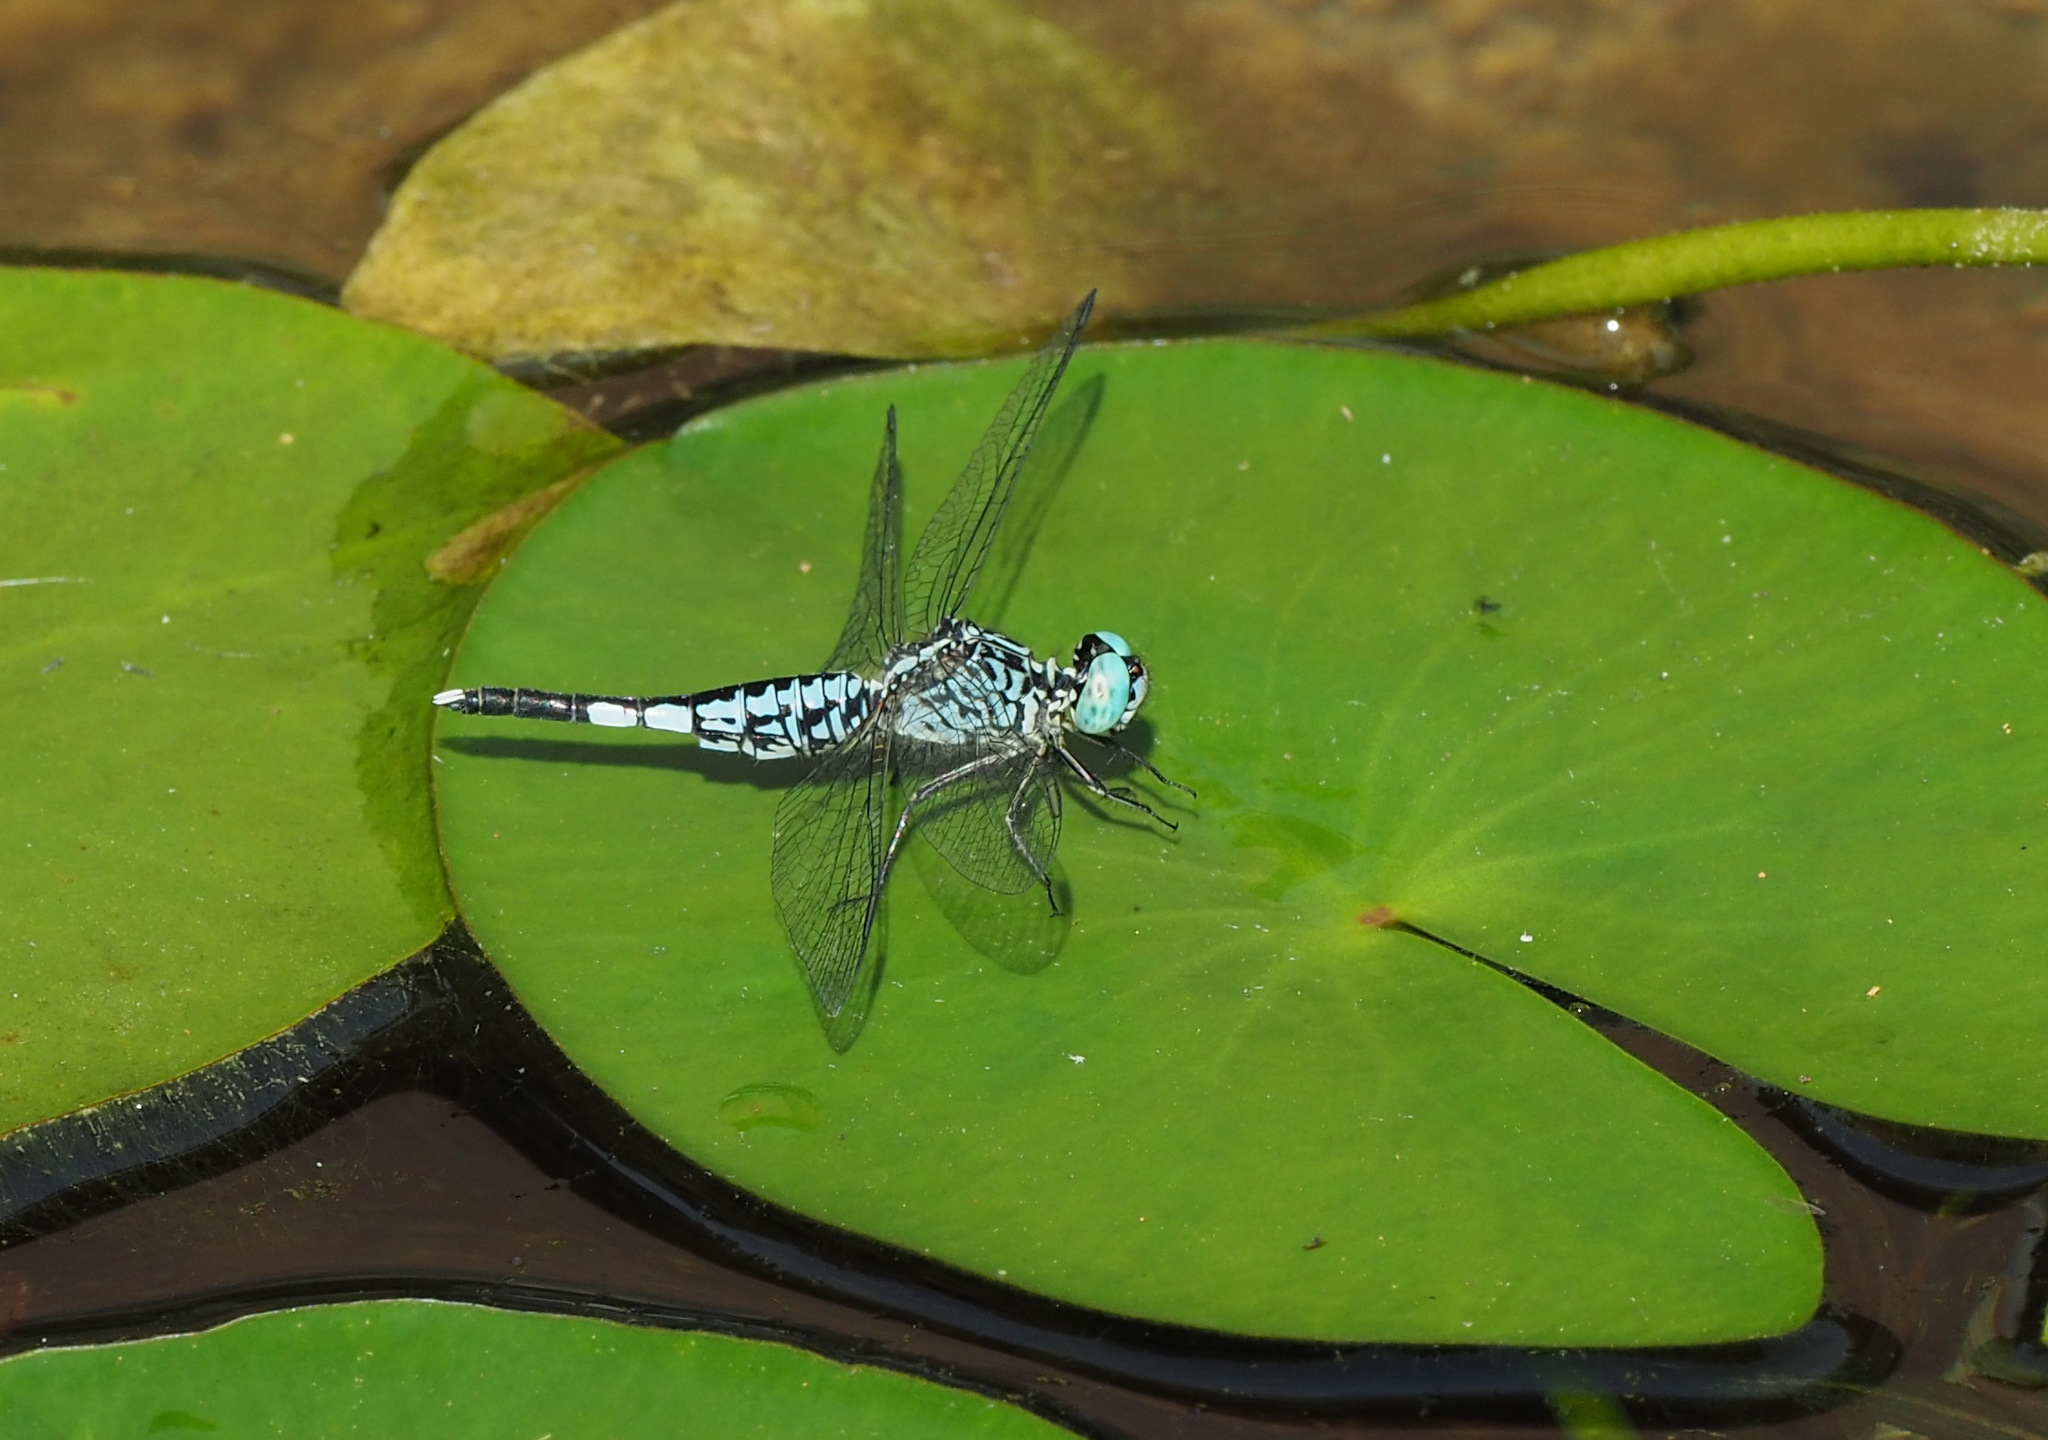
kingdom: Animalia
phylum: Arthropoda
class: Insecta
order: Odonata
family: Libellulidae
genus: Acisoma
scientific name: Acisoma panorpoides
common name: Asian pintail
